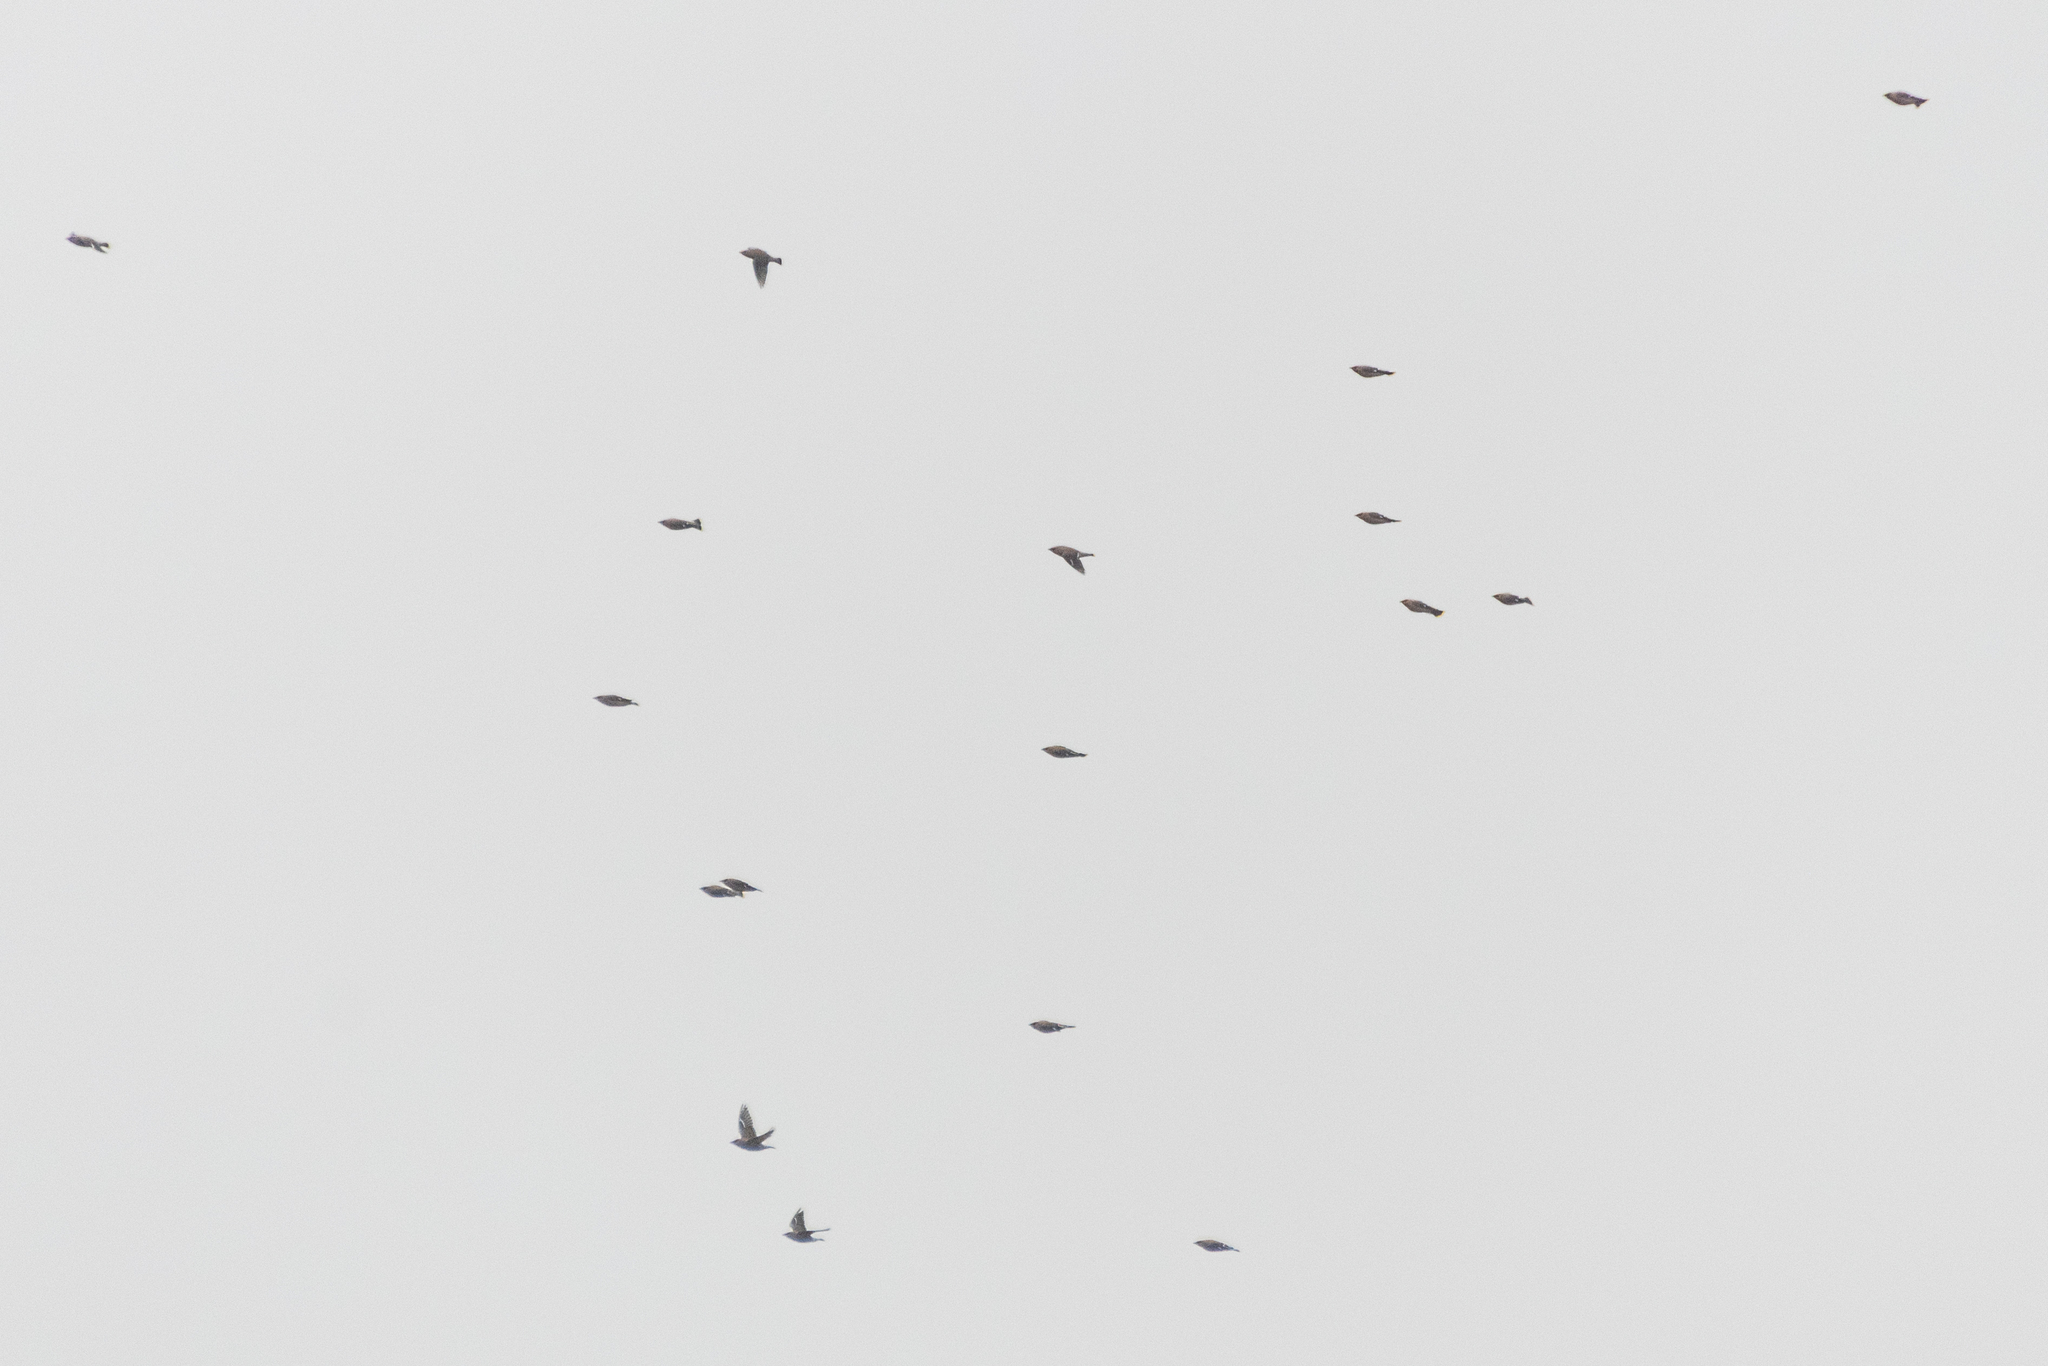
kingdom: Animalia
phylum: Chordata
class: Aves
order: Passeriformes
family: Bombycillidae
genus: Bombycilla
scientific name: Bombycilla garrulus
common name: Bohemian waxwing
